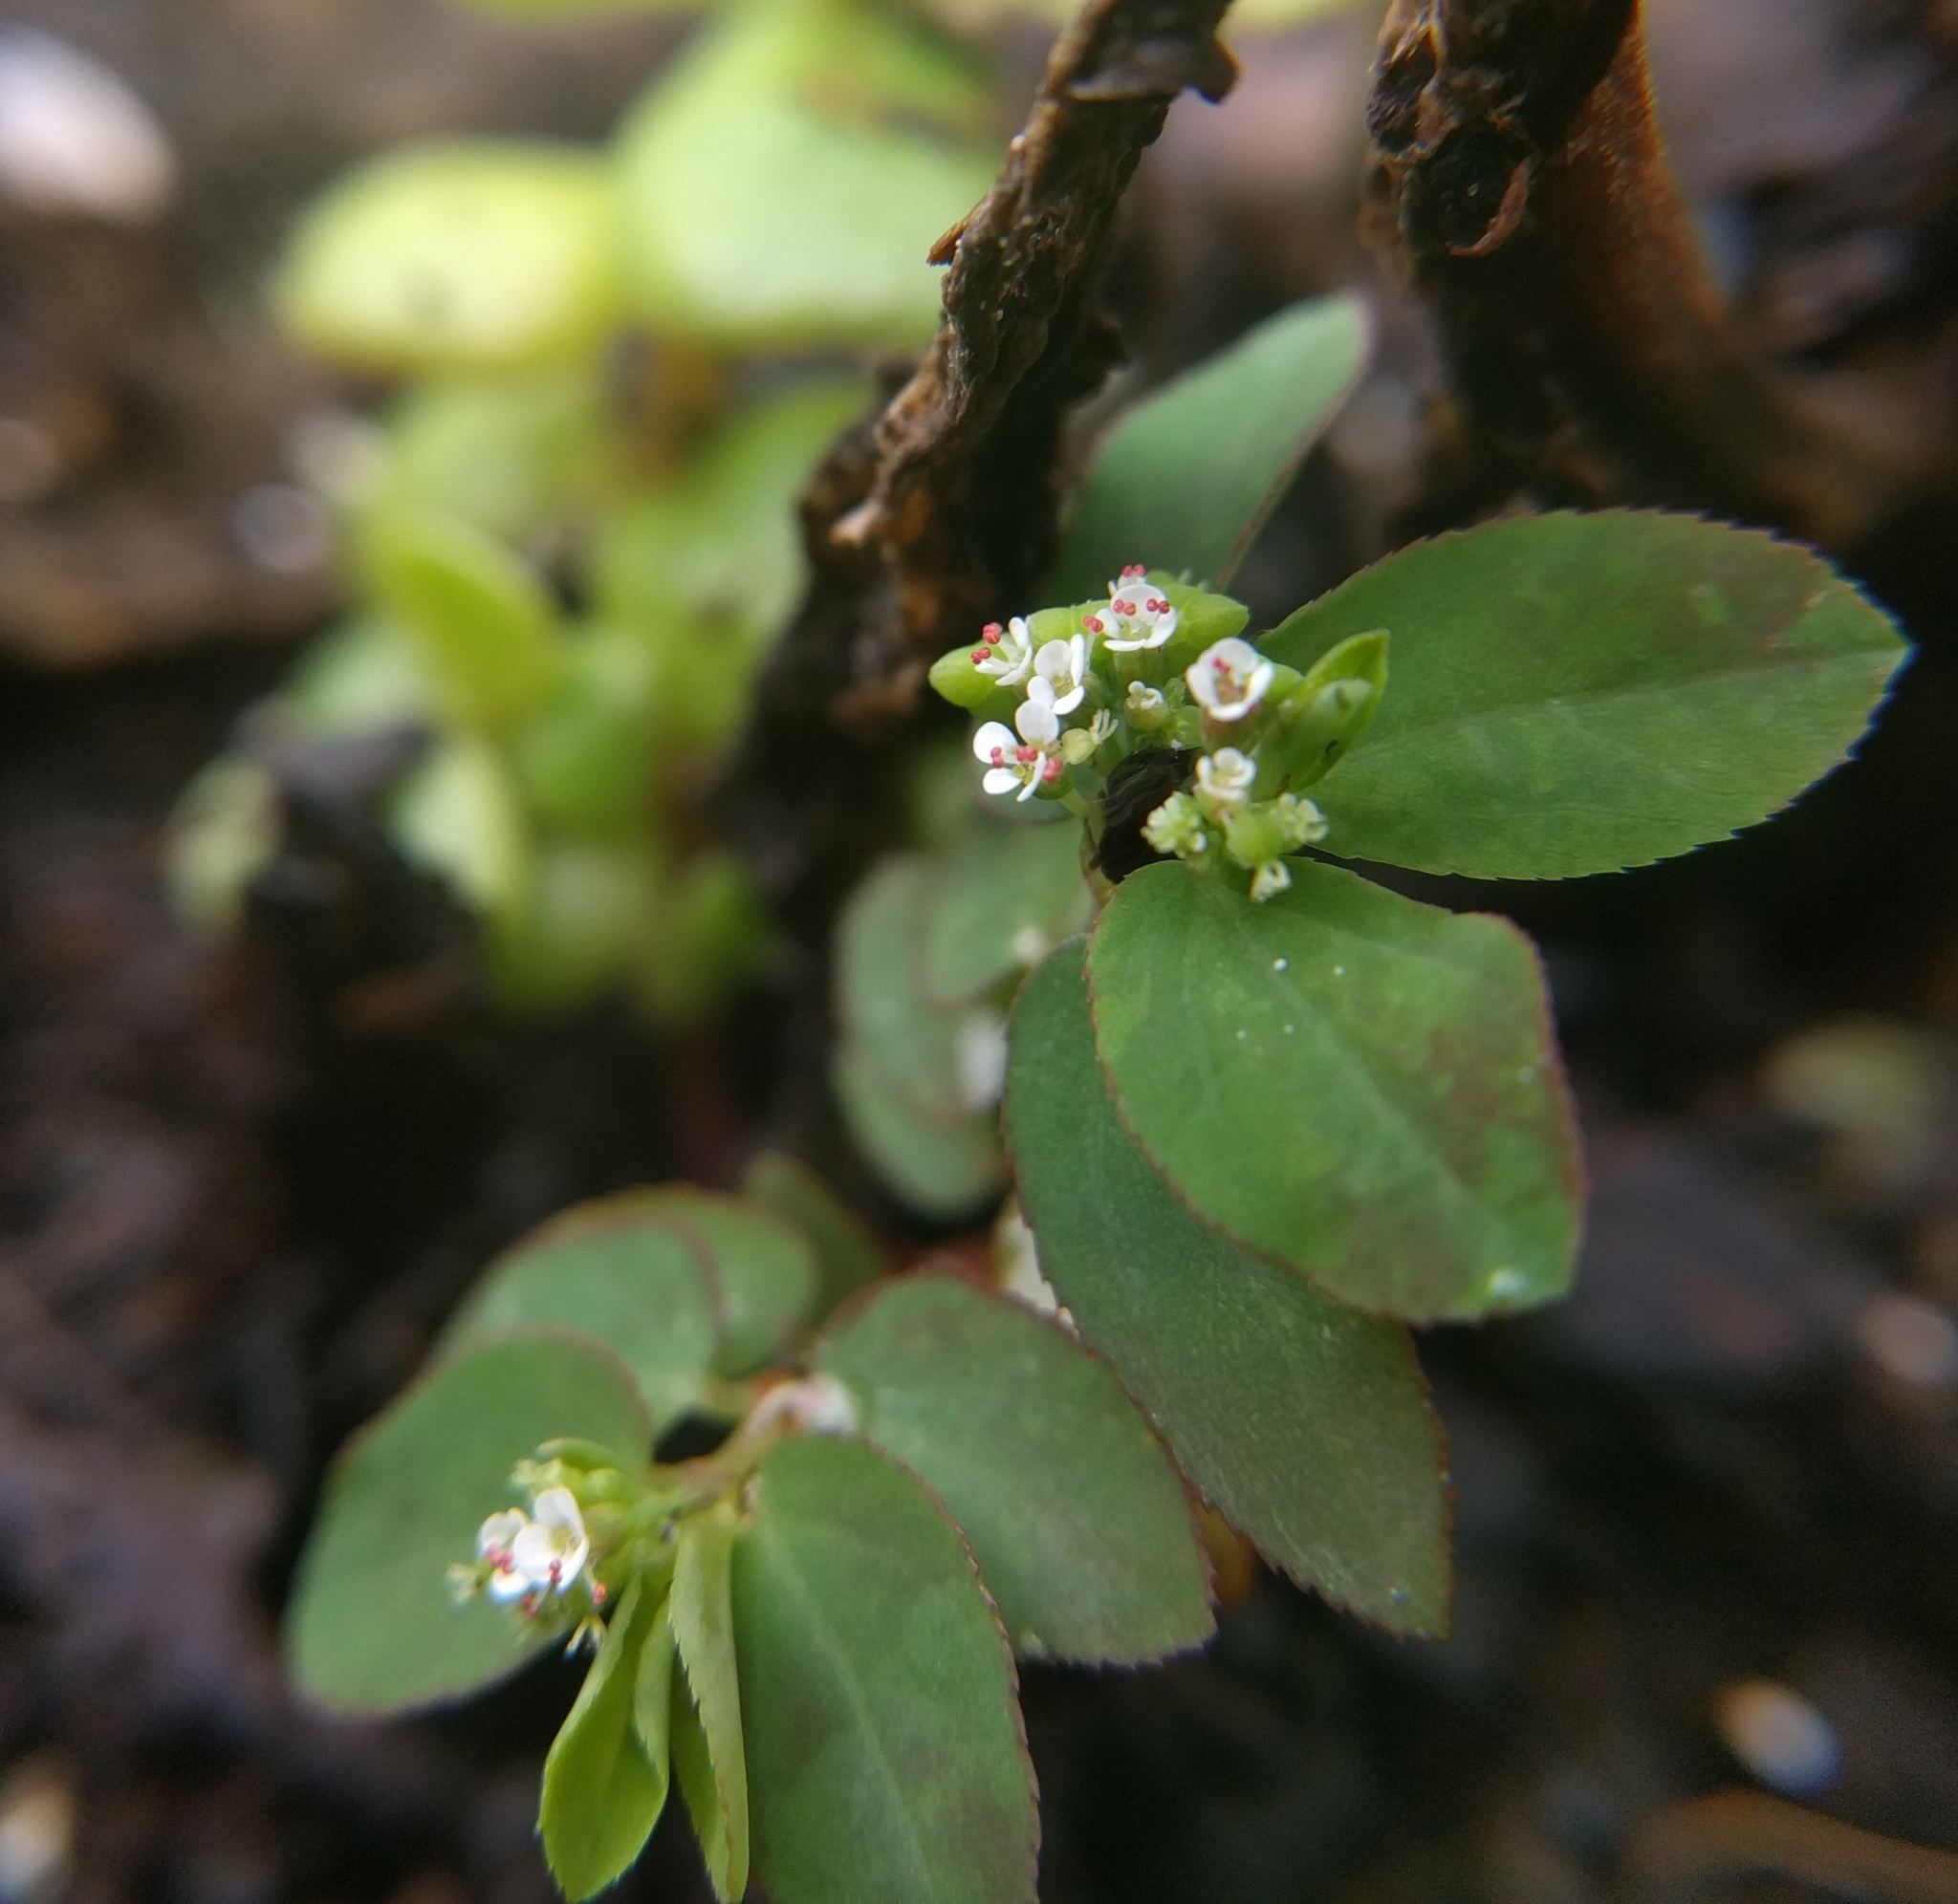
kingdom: Plantae
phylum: Tracheophyta
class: Magnoliopsida
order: Malpighiales
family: Euphorbiaceae
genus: Euphorbia
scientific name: Euphorbia hypericifolia
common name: Graceful sandmat
